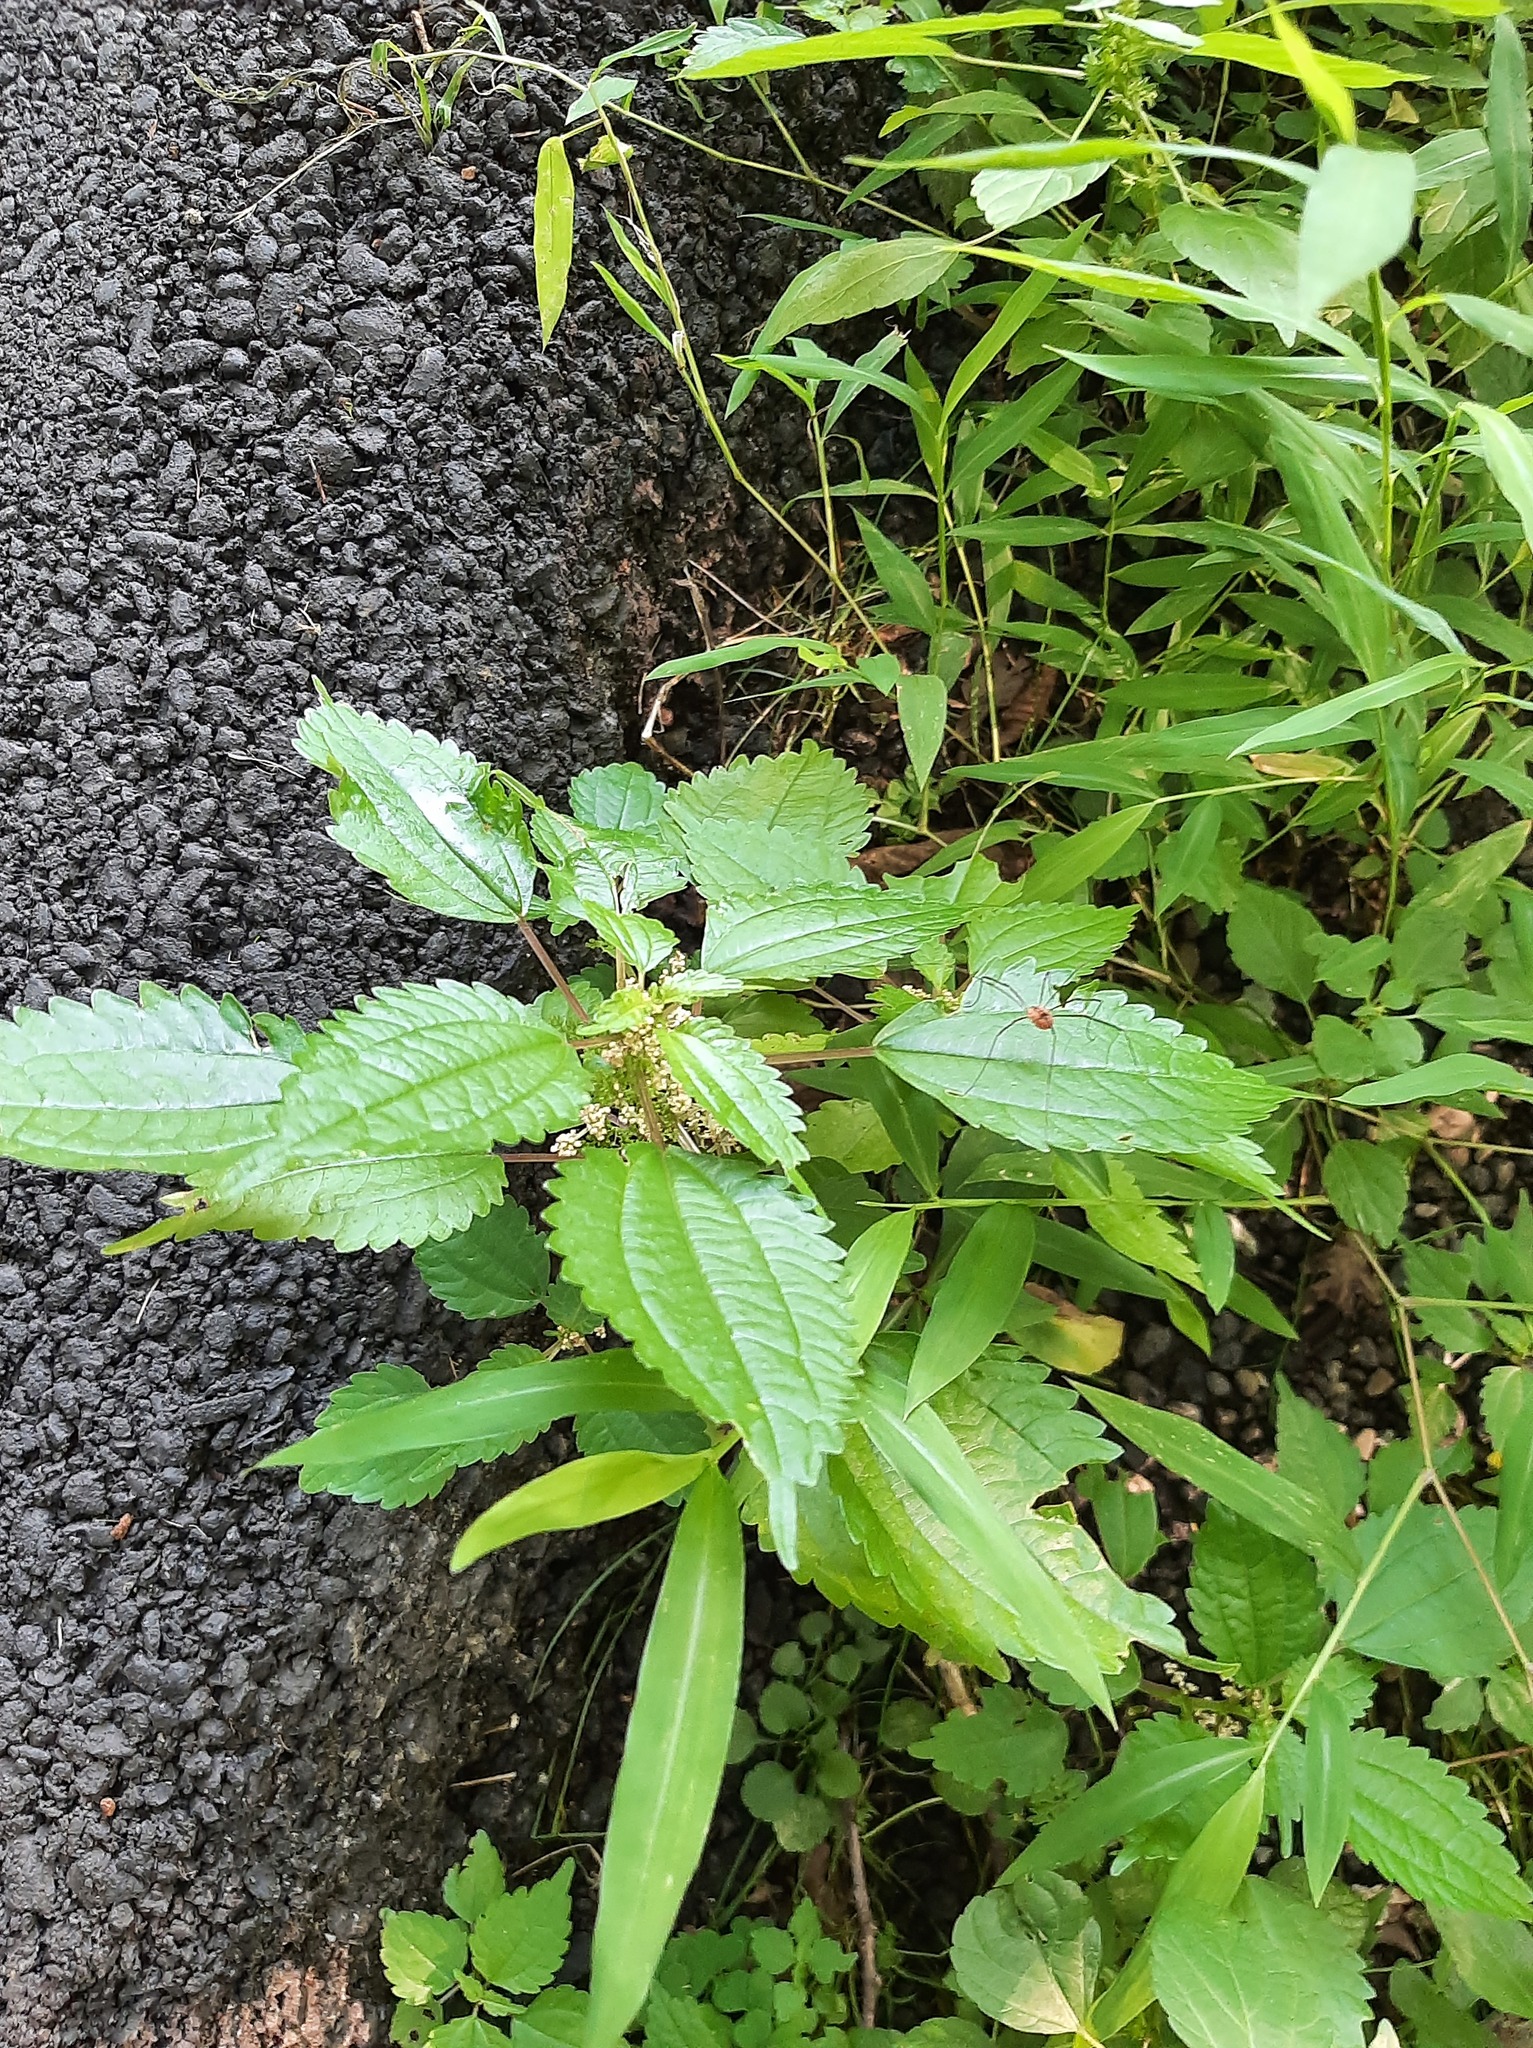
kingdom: Plantae
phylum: Tracheophyta
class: Magnoliopsida
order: Rosales
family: Urticaceae
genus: Pilea
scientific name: Pilea pumila
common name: Clearweed
